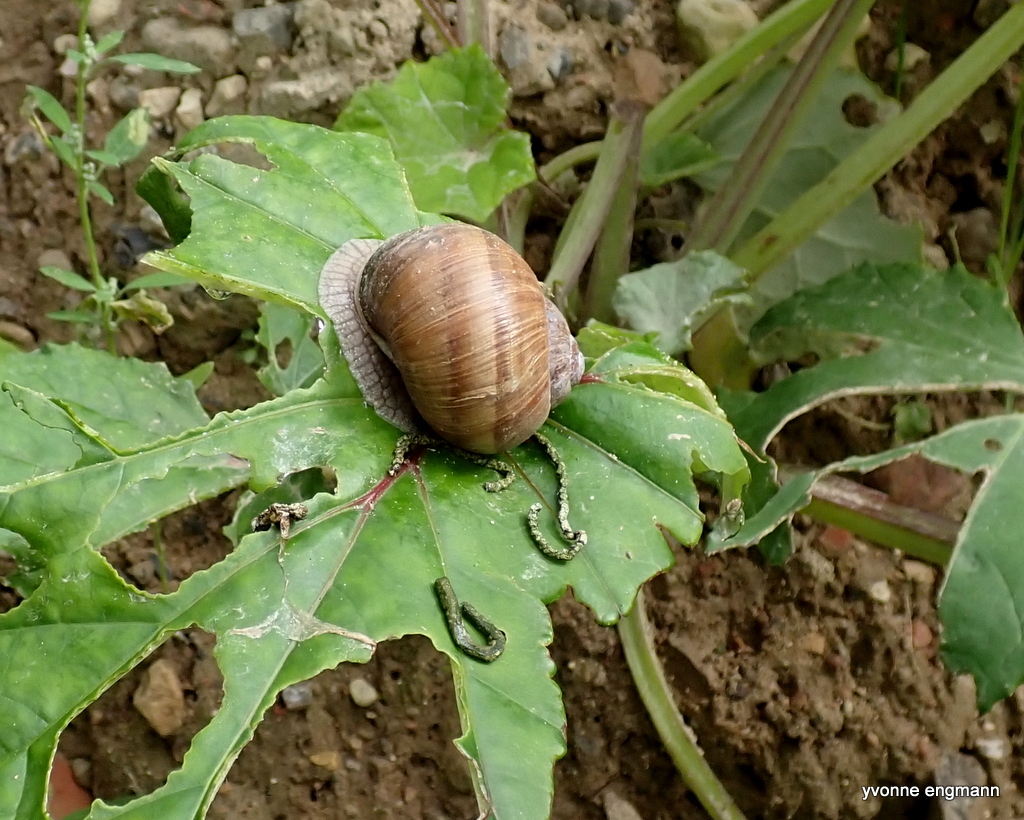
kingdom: Animalia
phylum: Mollusca
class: Gastropoda
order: Stylommatophora
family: Helicidae
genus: Helix
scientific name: Helix pomatia
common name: Roman snail
